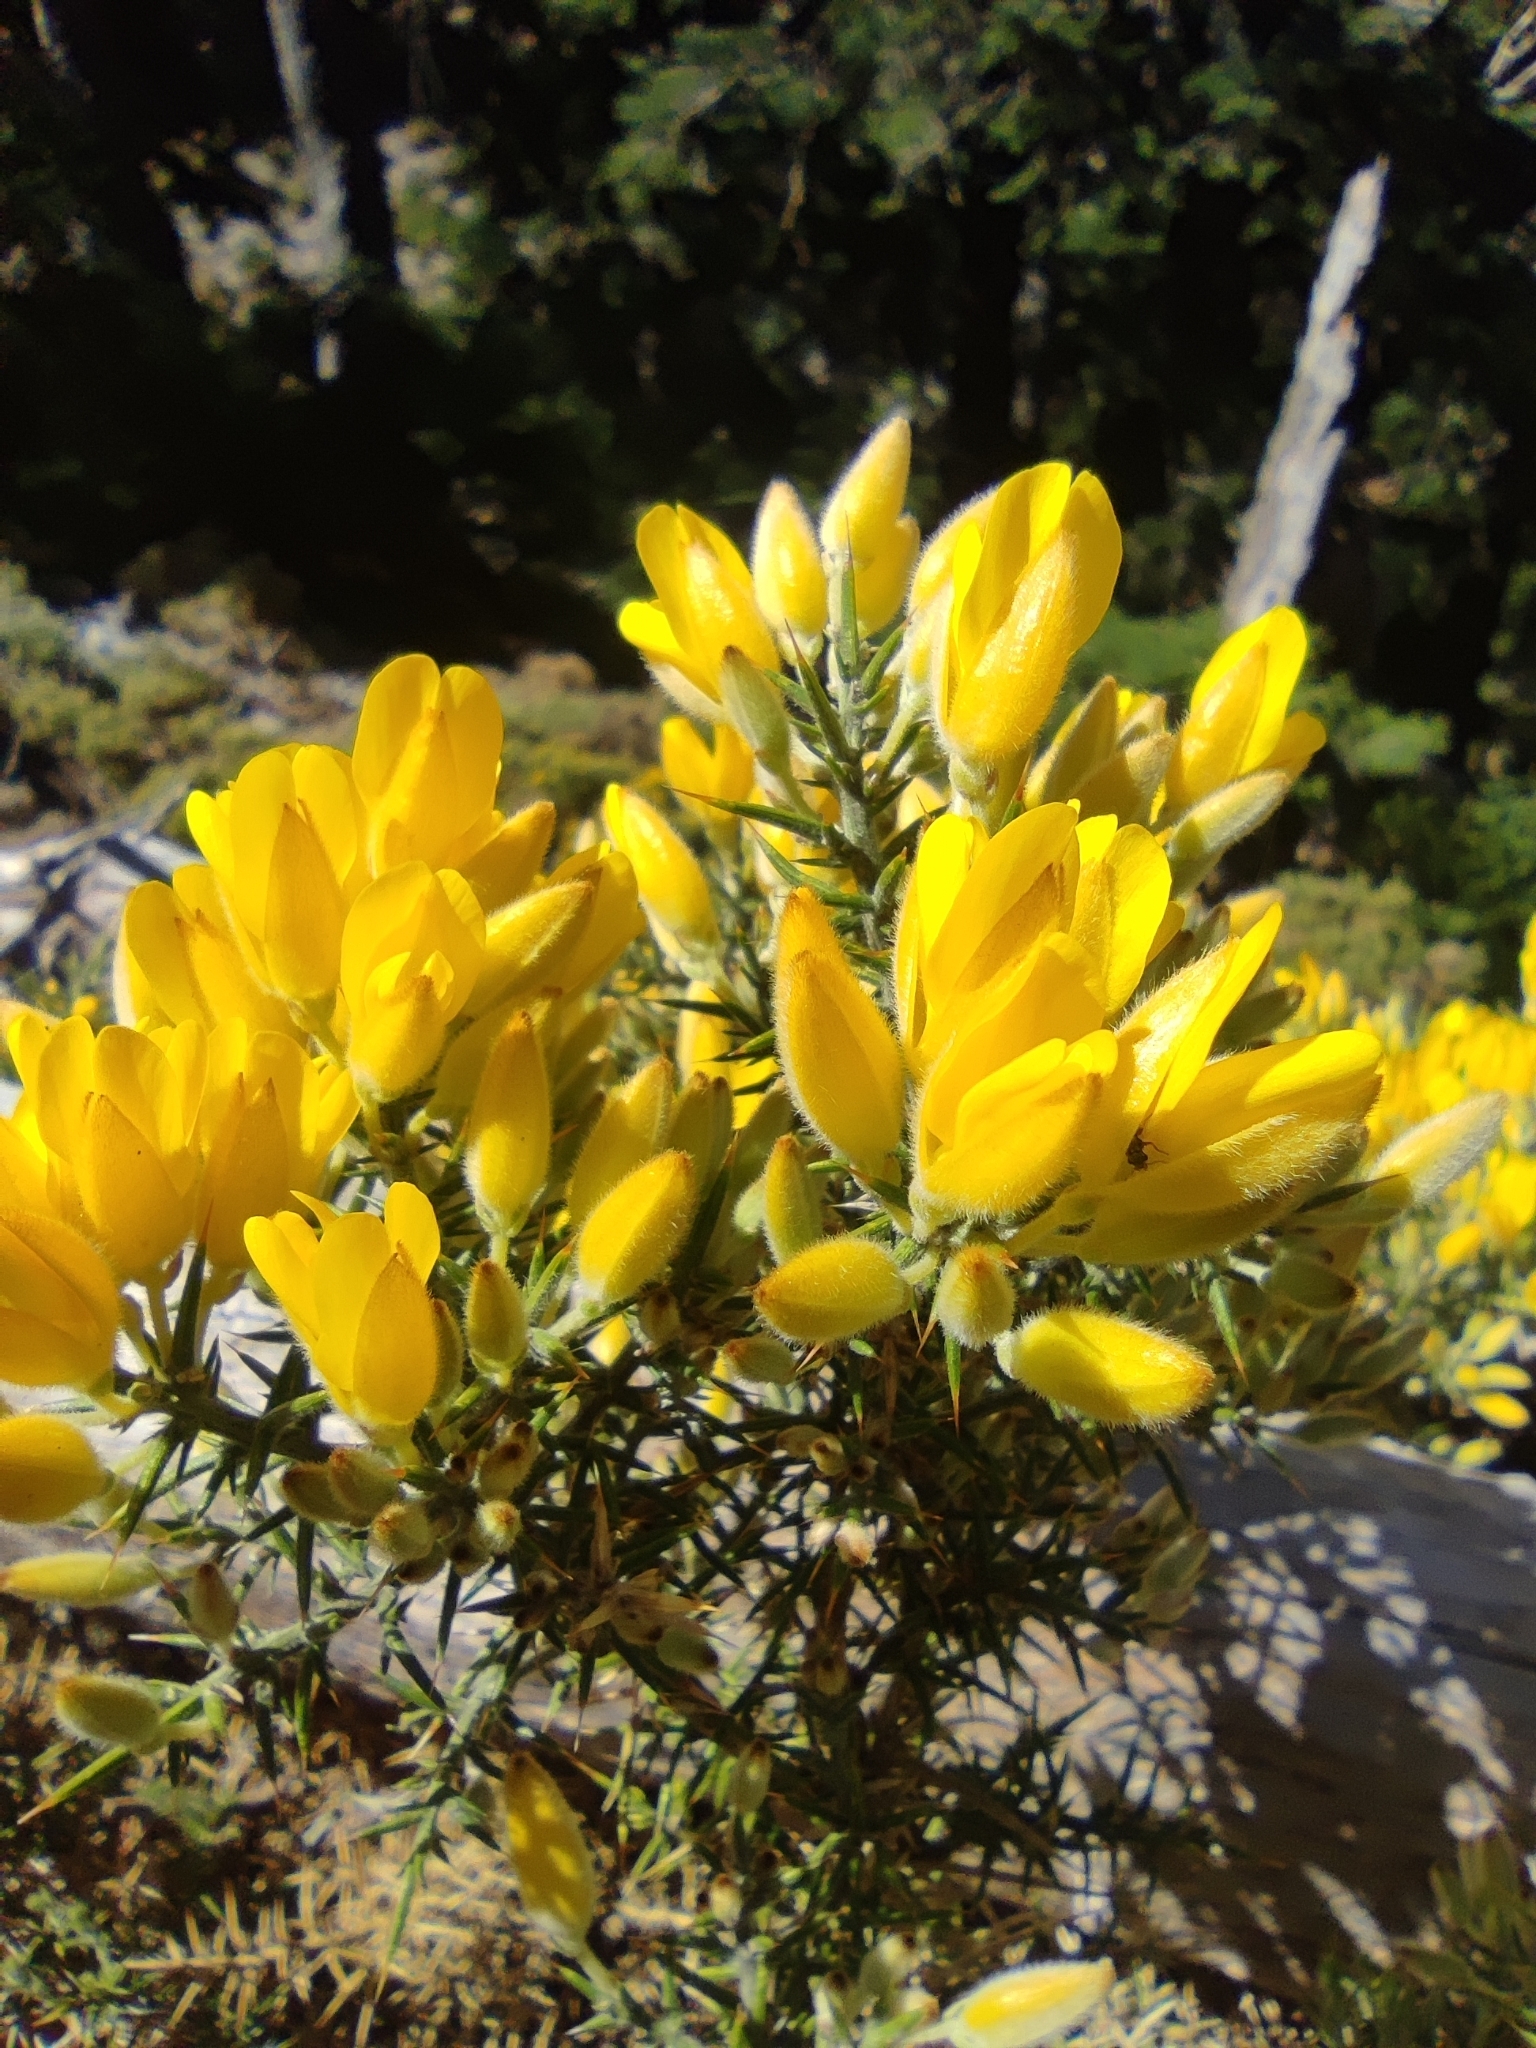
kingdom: Plantae
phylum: Tracheophyta
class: Magnoliopsida
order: Fabales
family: Fabaceae
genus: Ulex
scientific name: Ulex baeticus
